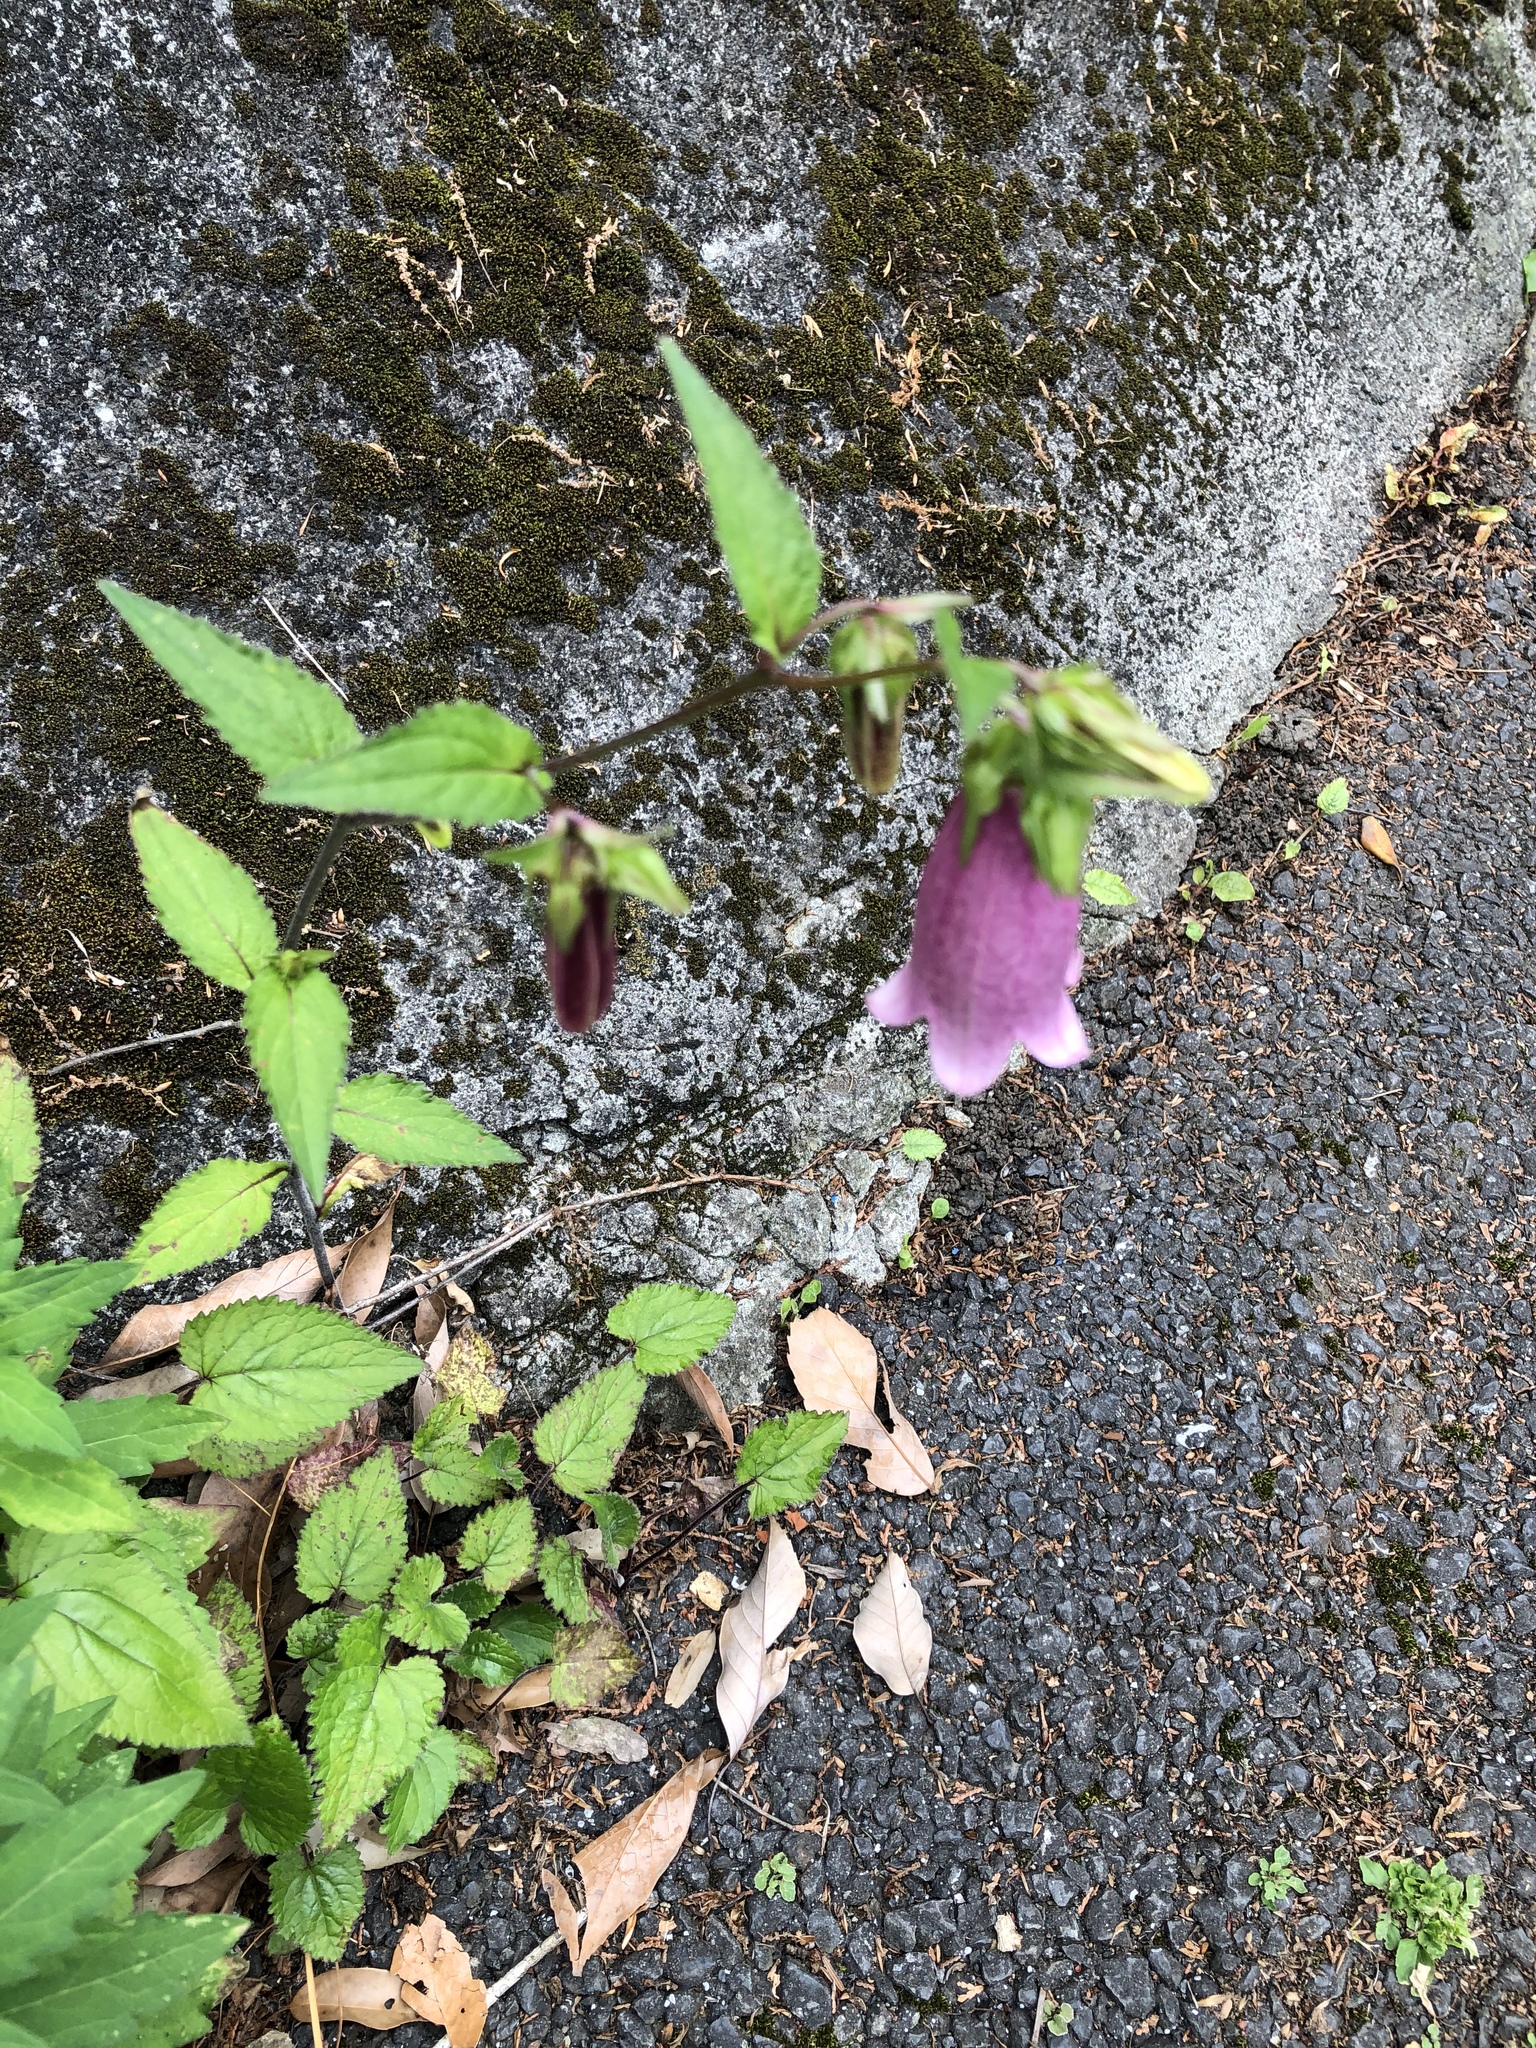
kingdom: Plantae
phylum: Tracheophyta
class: Magnoliopsida
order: Asterales
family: Campanulaceae
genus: Campanula
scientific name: Campanula punctata
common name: Spotted bellflower
